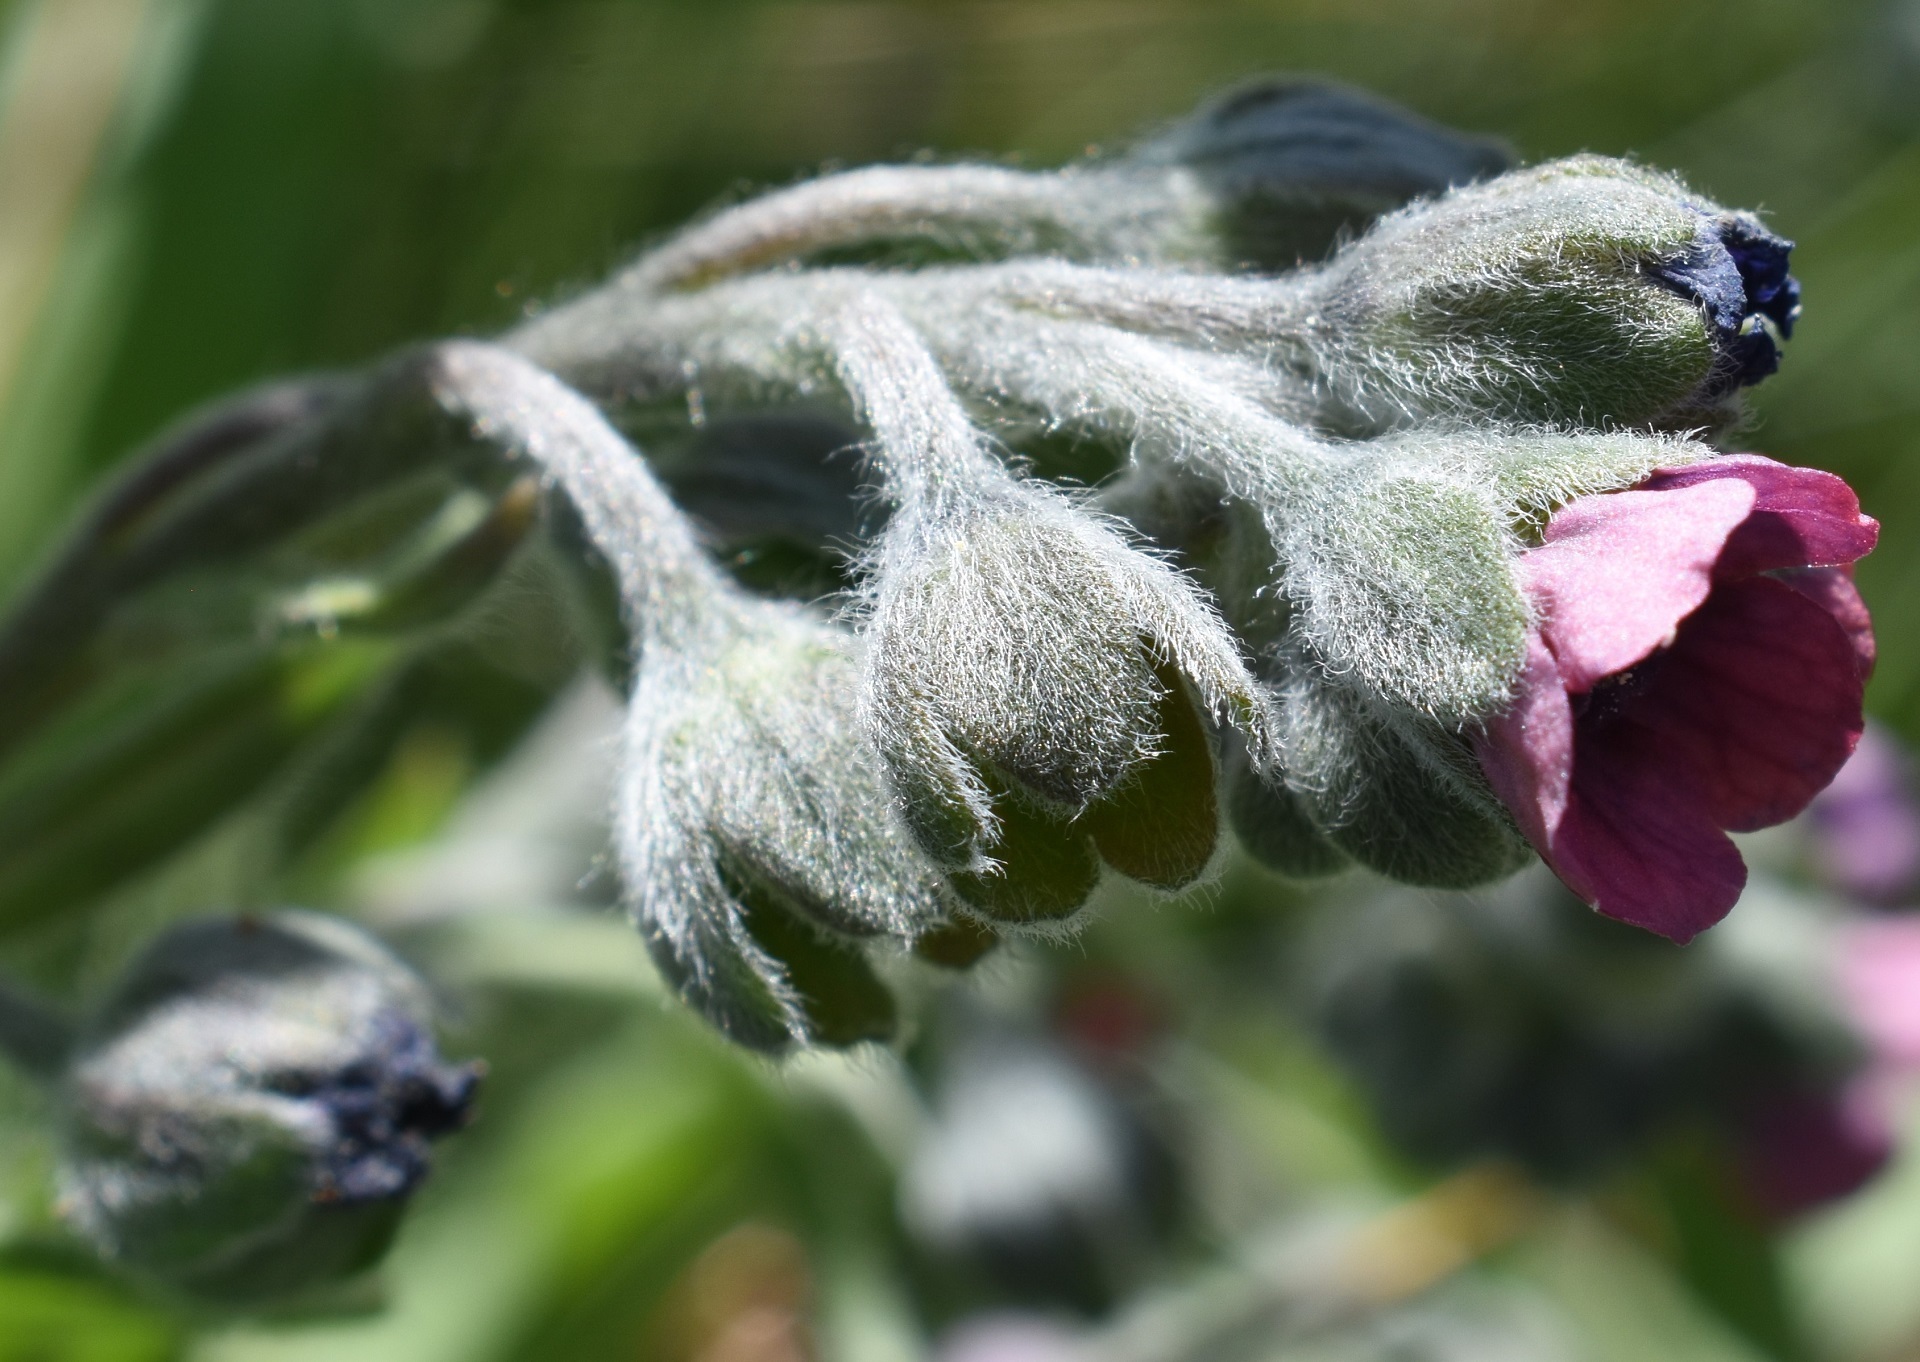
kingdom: Plantae
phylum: Tracheophyta
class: Magnoliopsida
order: Boraginales
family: Boraginaceae
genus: Cynoglossum
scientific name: Cynoglossum officinale
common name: Hound's-tongue
